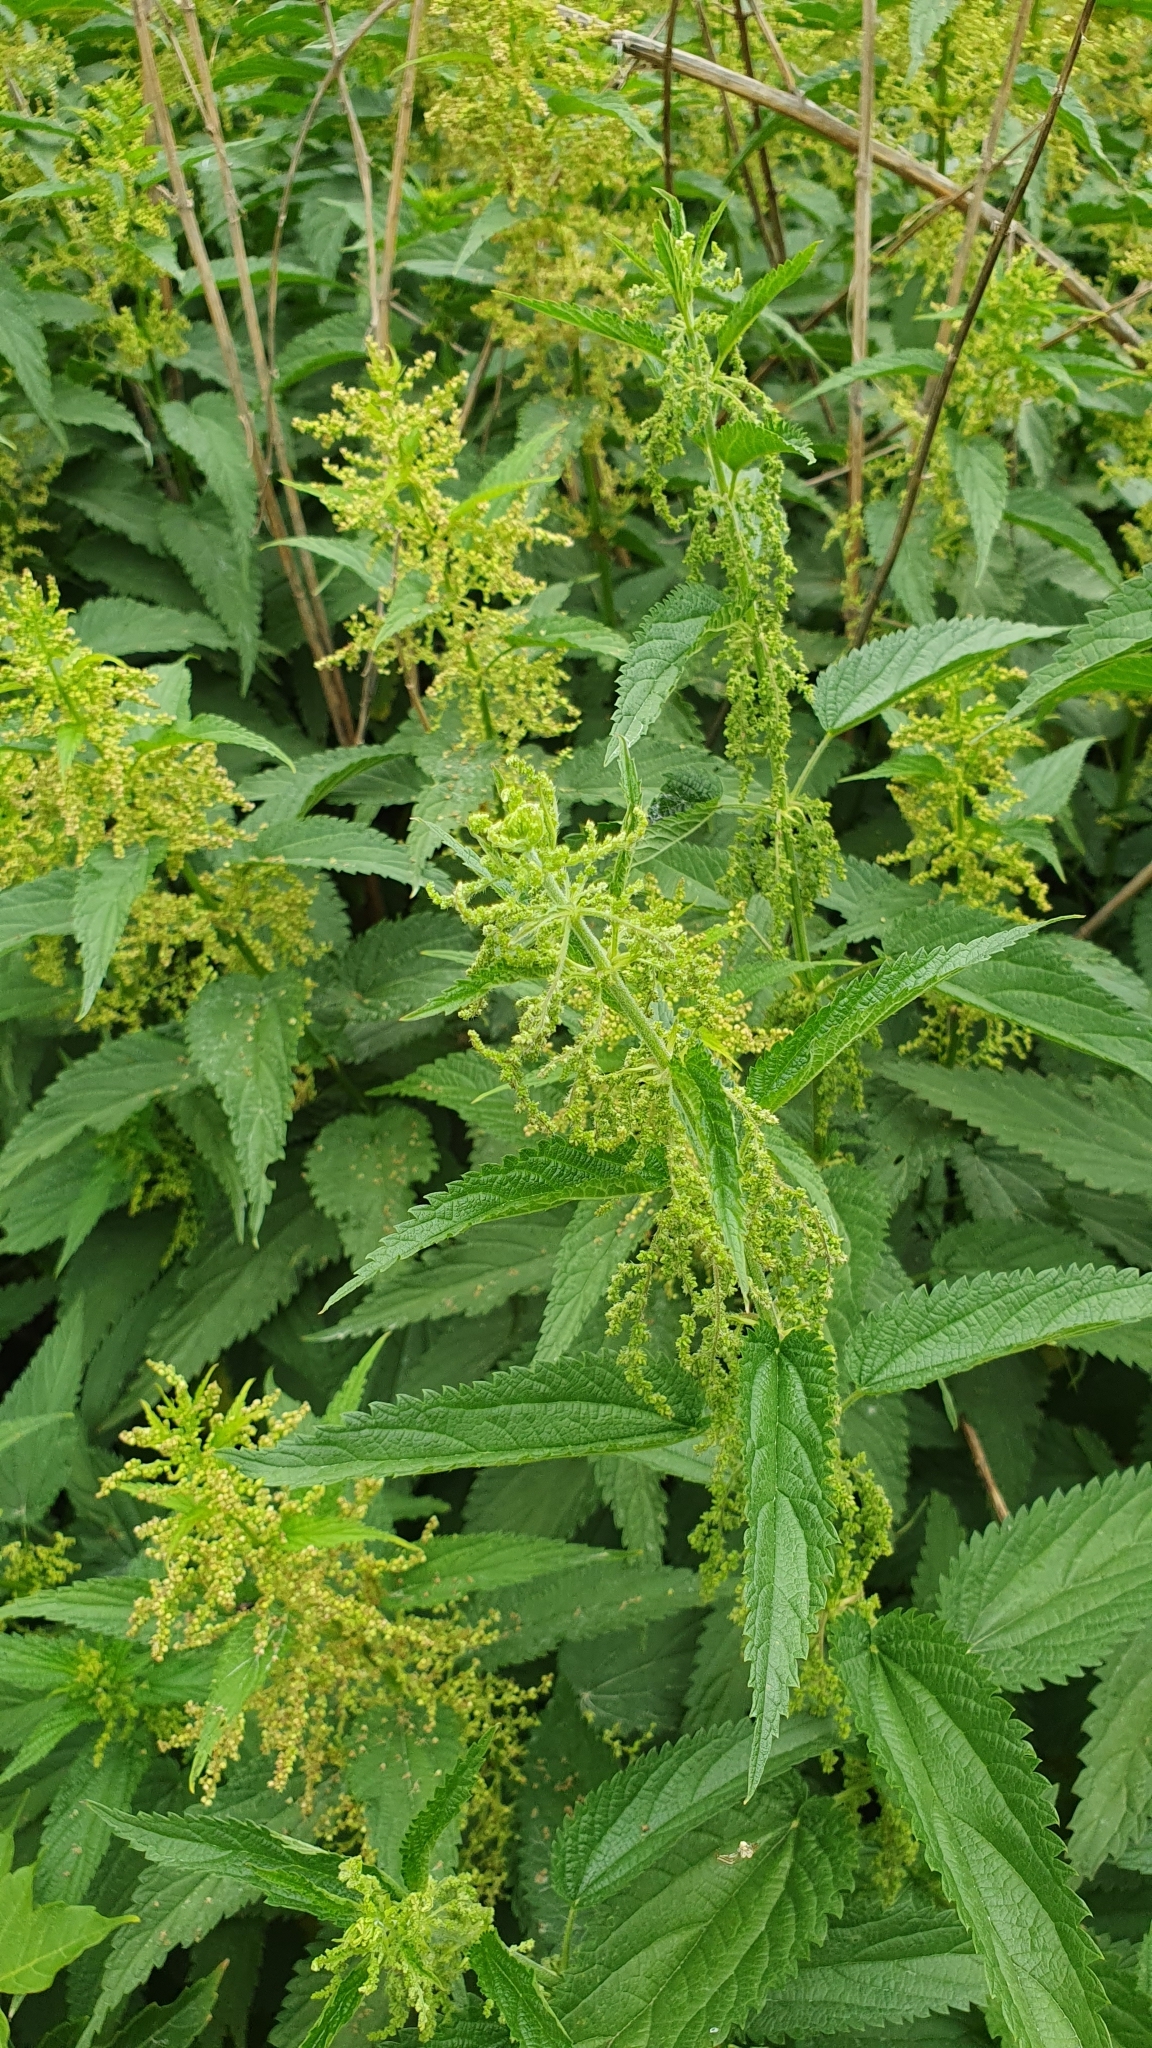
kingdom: Plantae
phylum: Tracheophyta
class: Magnoliopsida
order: Rosales
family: Urticaceae
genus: Urtica
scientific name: Urtica dioica
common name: Common nettle
